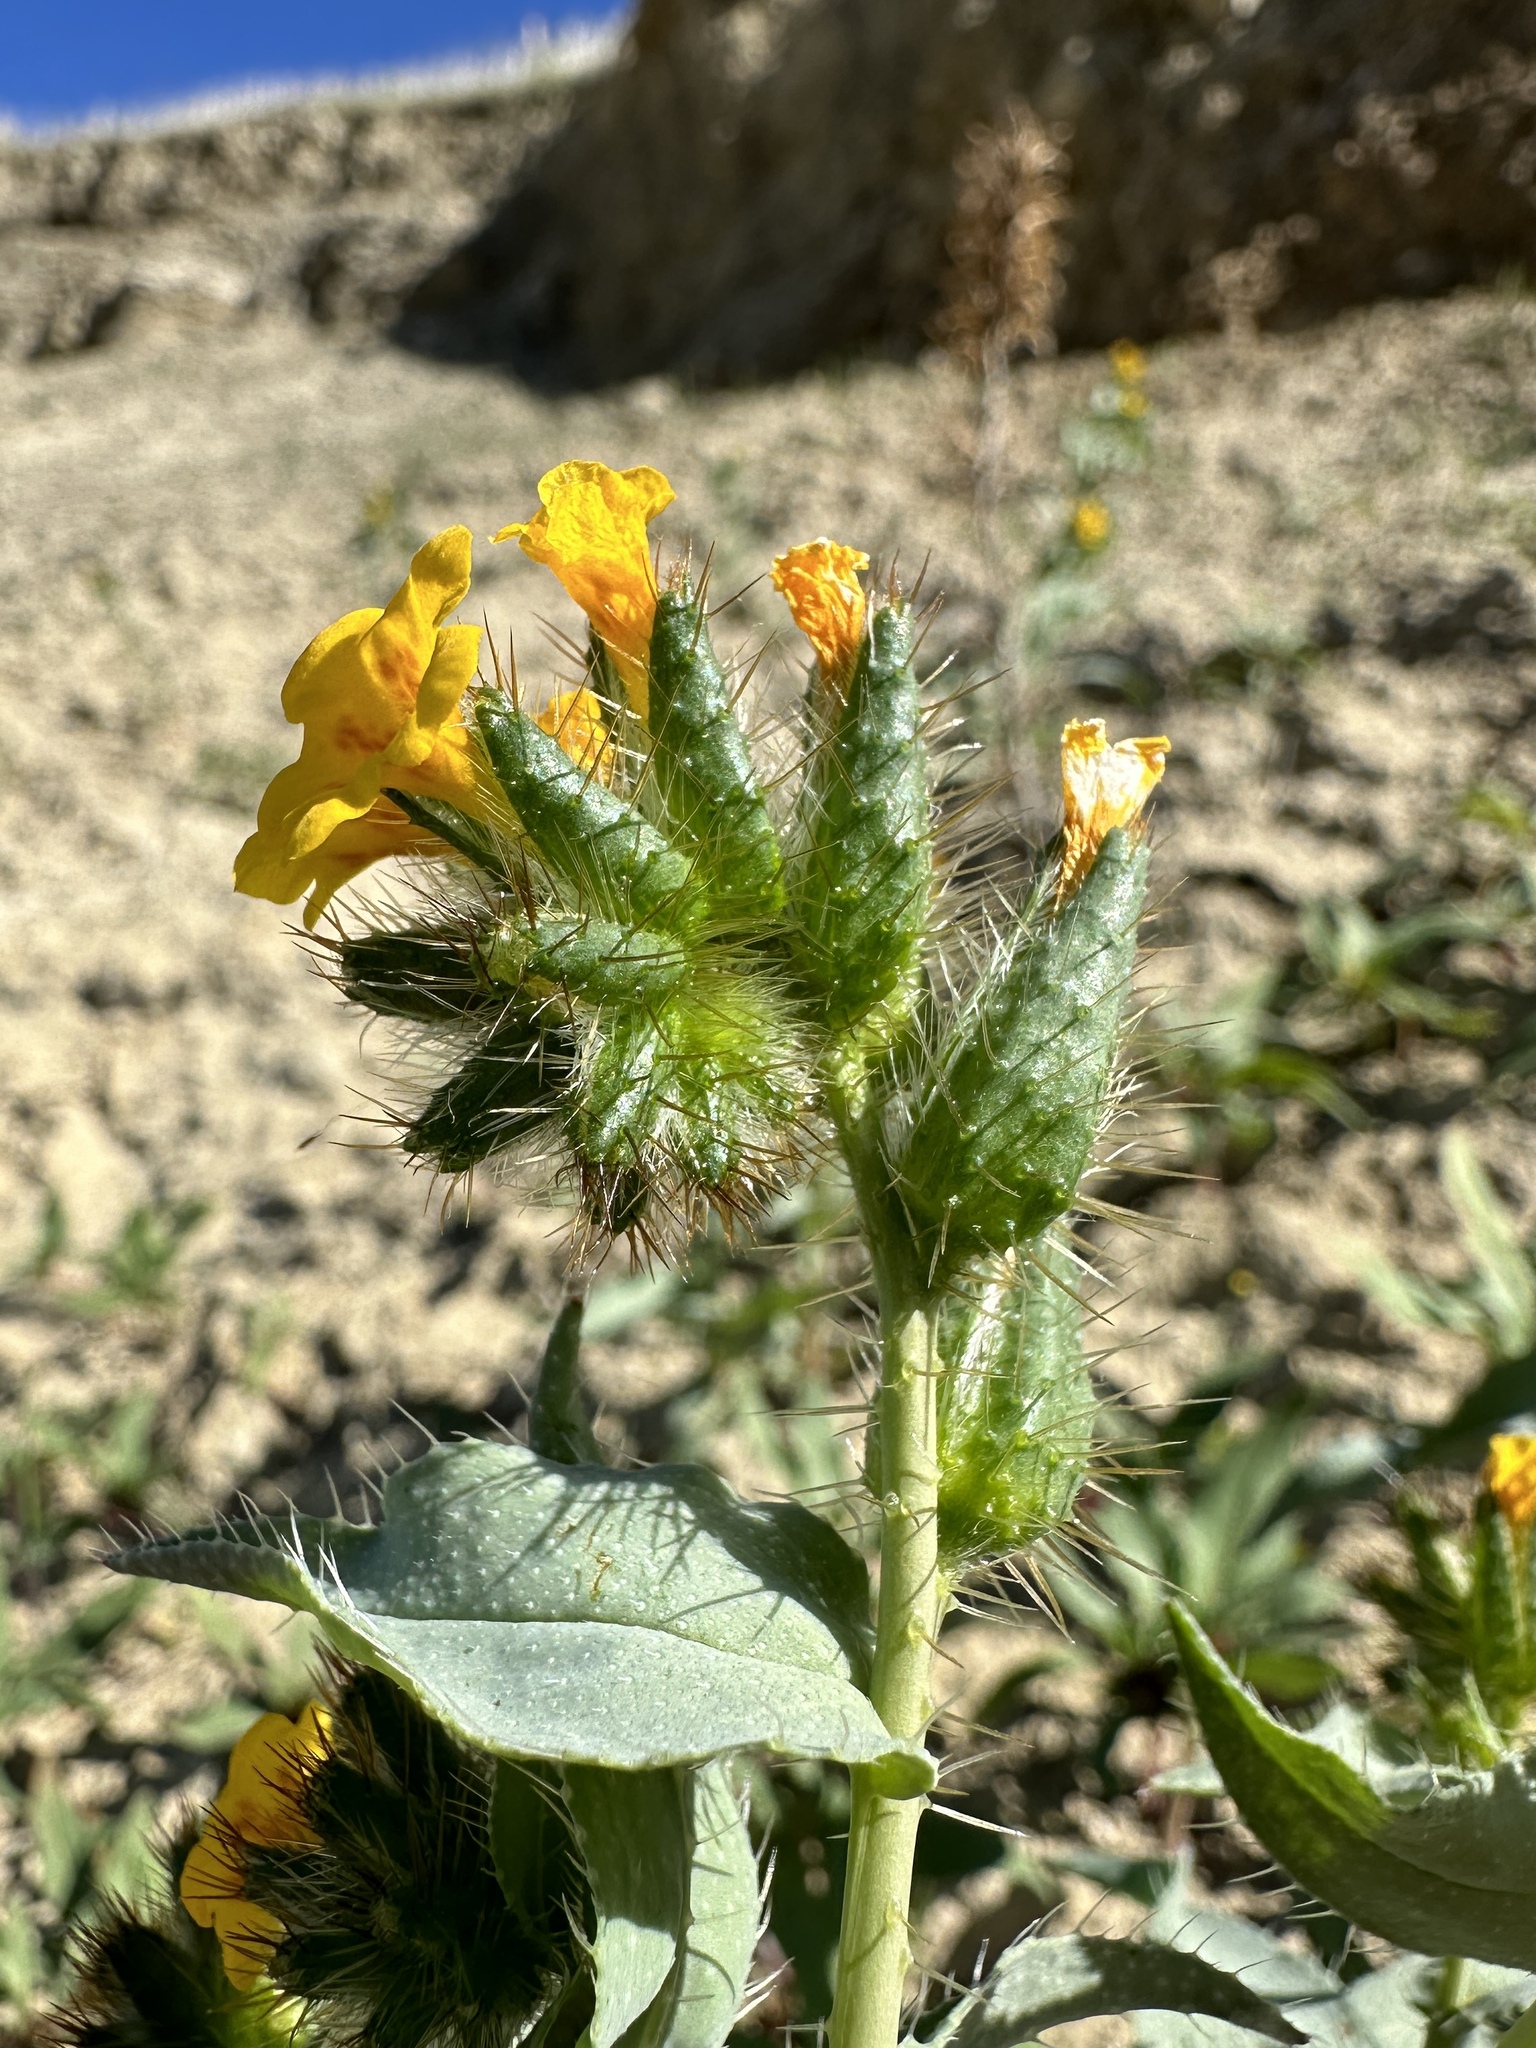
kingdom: Plantae
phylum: Tracheophyta
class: Magnoliopsida
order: Boraginales
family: Boraginaceae
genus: Amsinckia
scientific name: Amsinckia vernicosa
